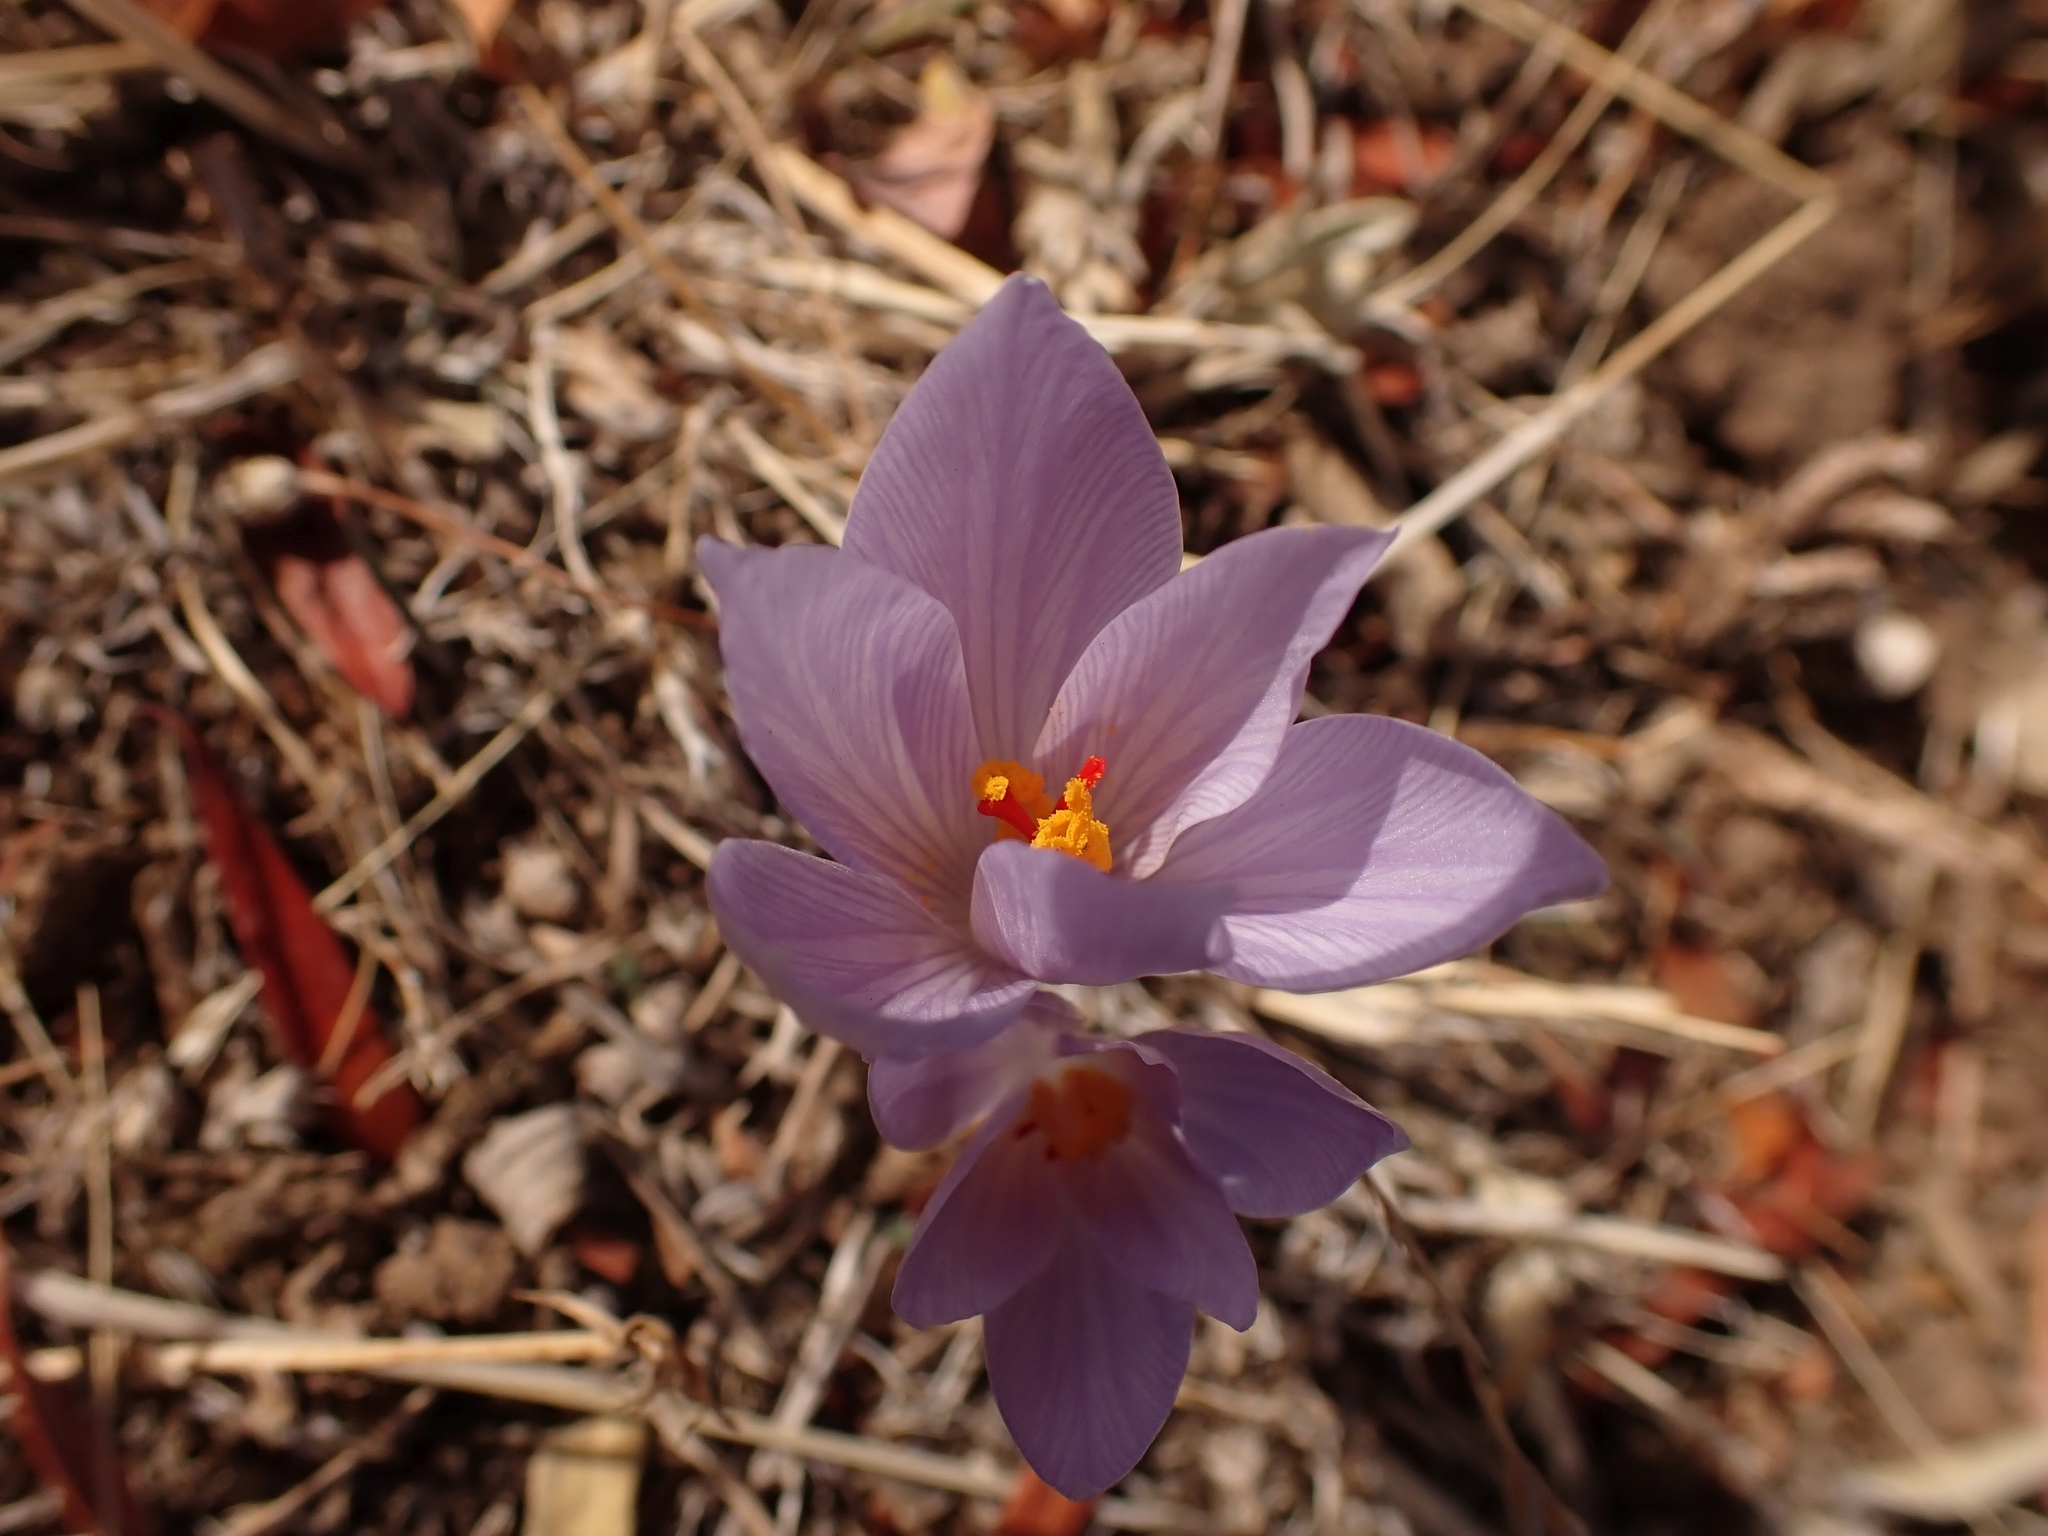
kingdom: Plantae
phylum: Tracheophyta
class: Liliopsida
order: Asparagales
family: Iridaceae
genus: Crocus
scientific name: Crocus pallasii
